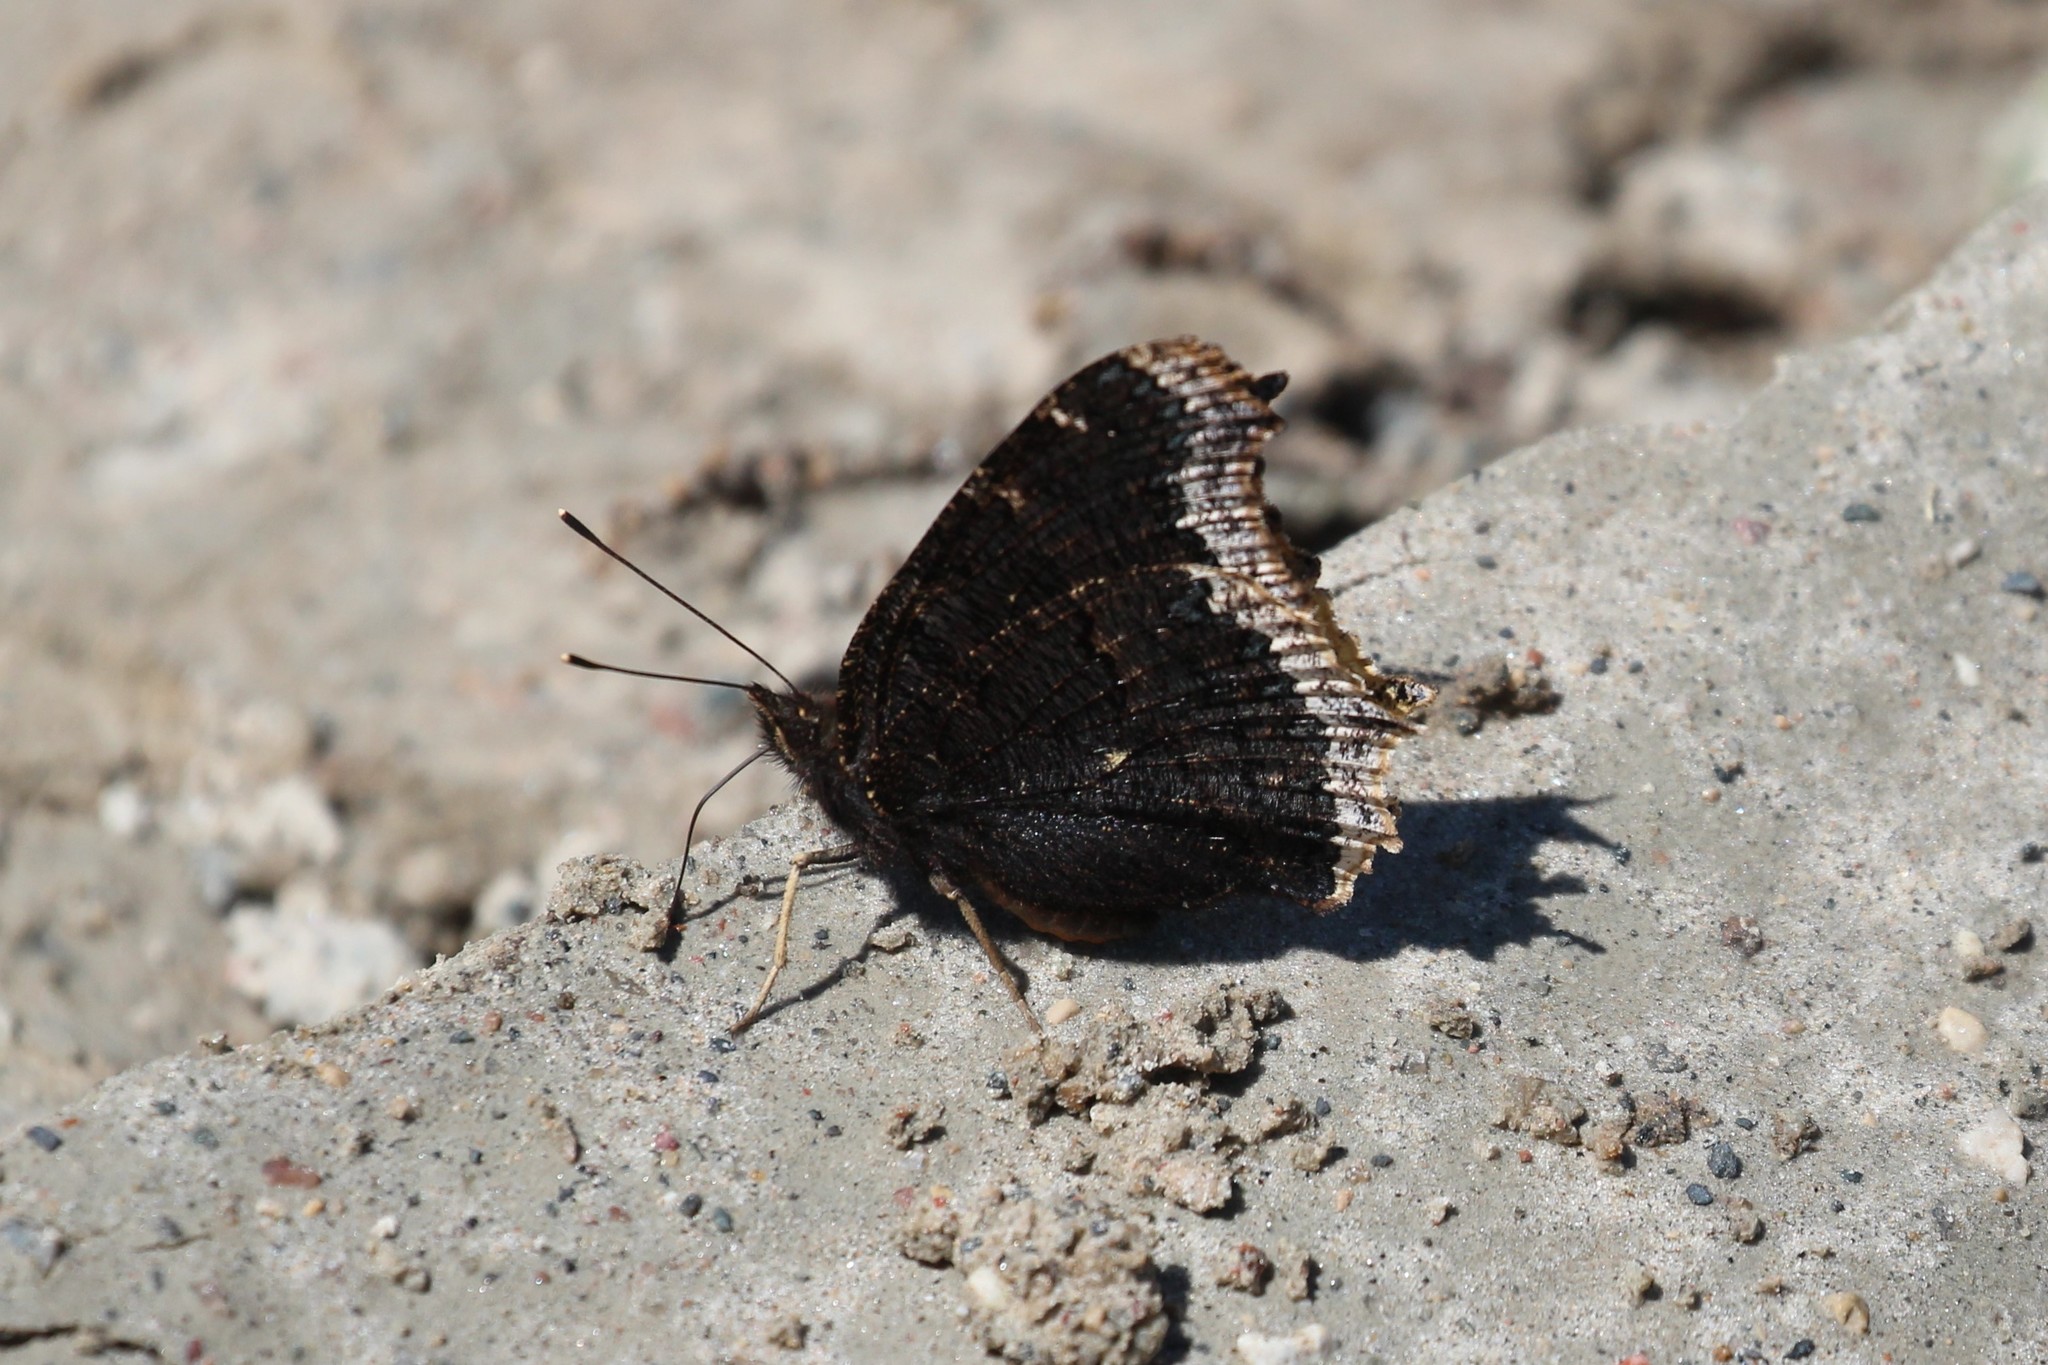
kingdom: Animalia
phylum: Arthropoda
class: Insecta
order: Lepidoptera
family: Nymphalidae
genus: Nymphalis
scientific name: Nymphalis antiopa
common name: Camberwell beauty
